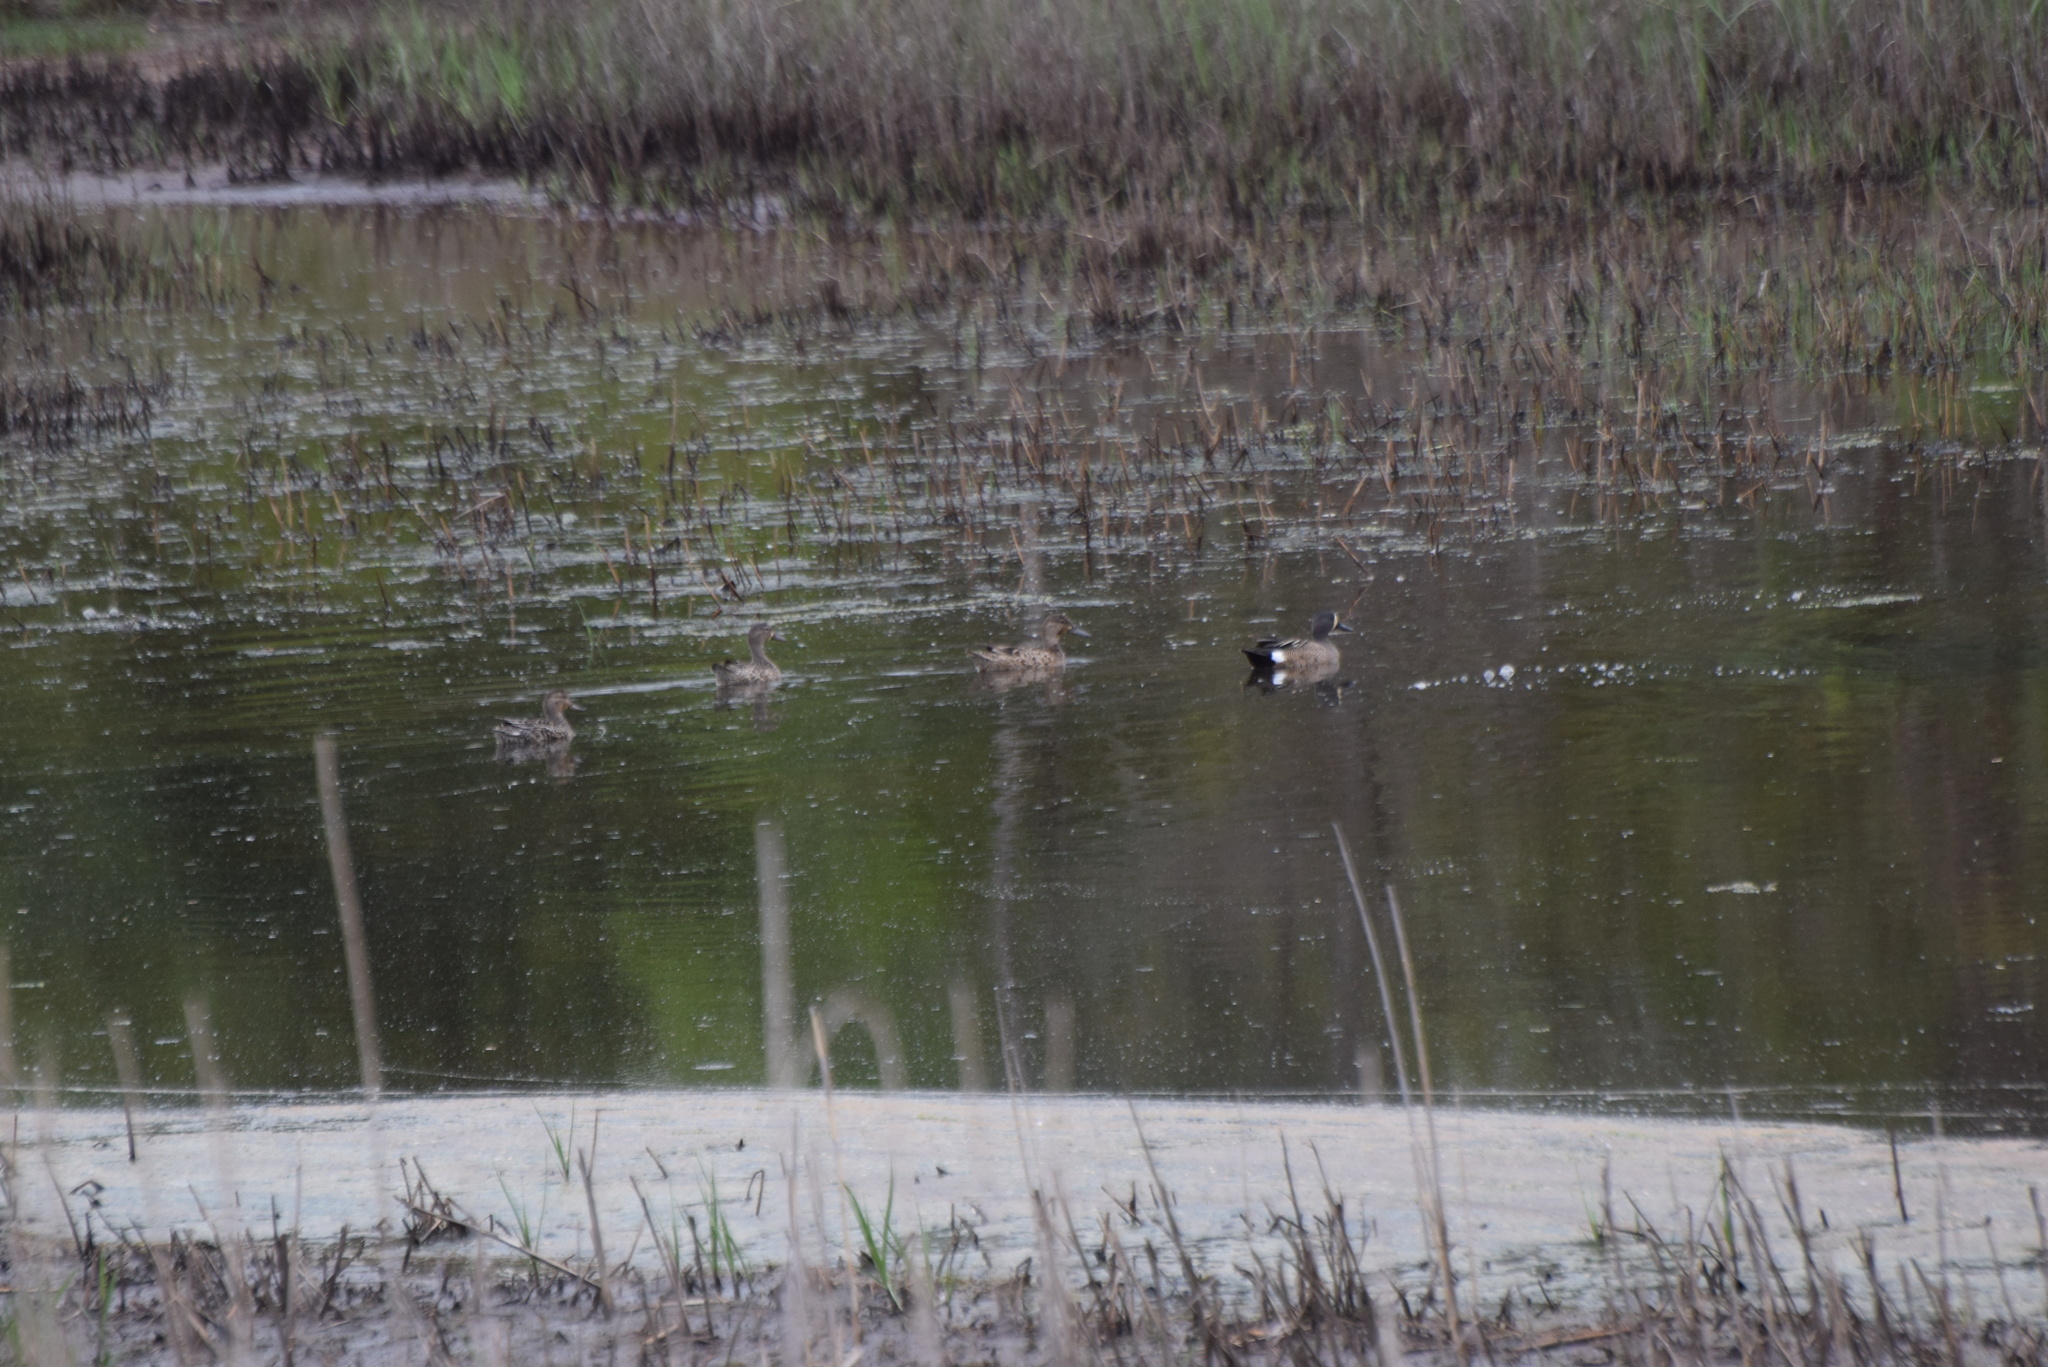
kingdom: Animalia
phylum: Chordata
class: Aves
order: Anseriformes
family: Anatidae
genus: Spatula
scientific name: Spatula discors
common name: Blue-winged teal
